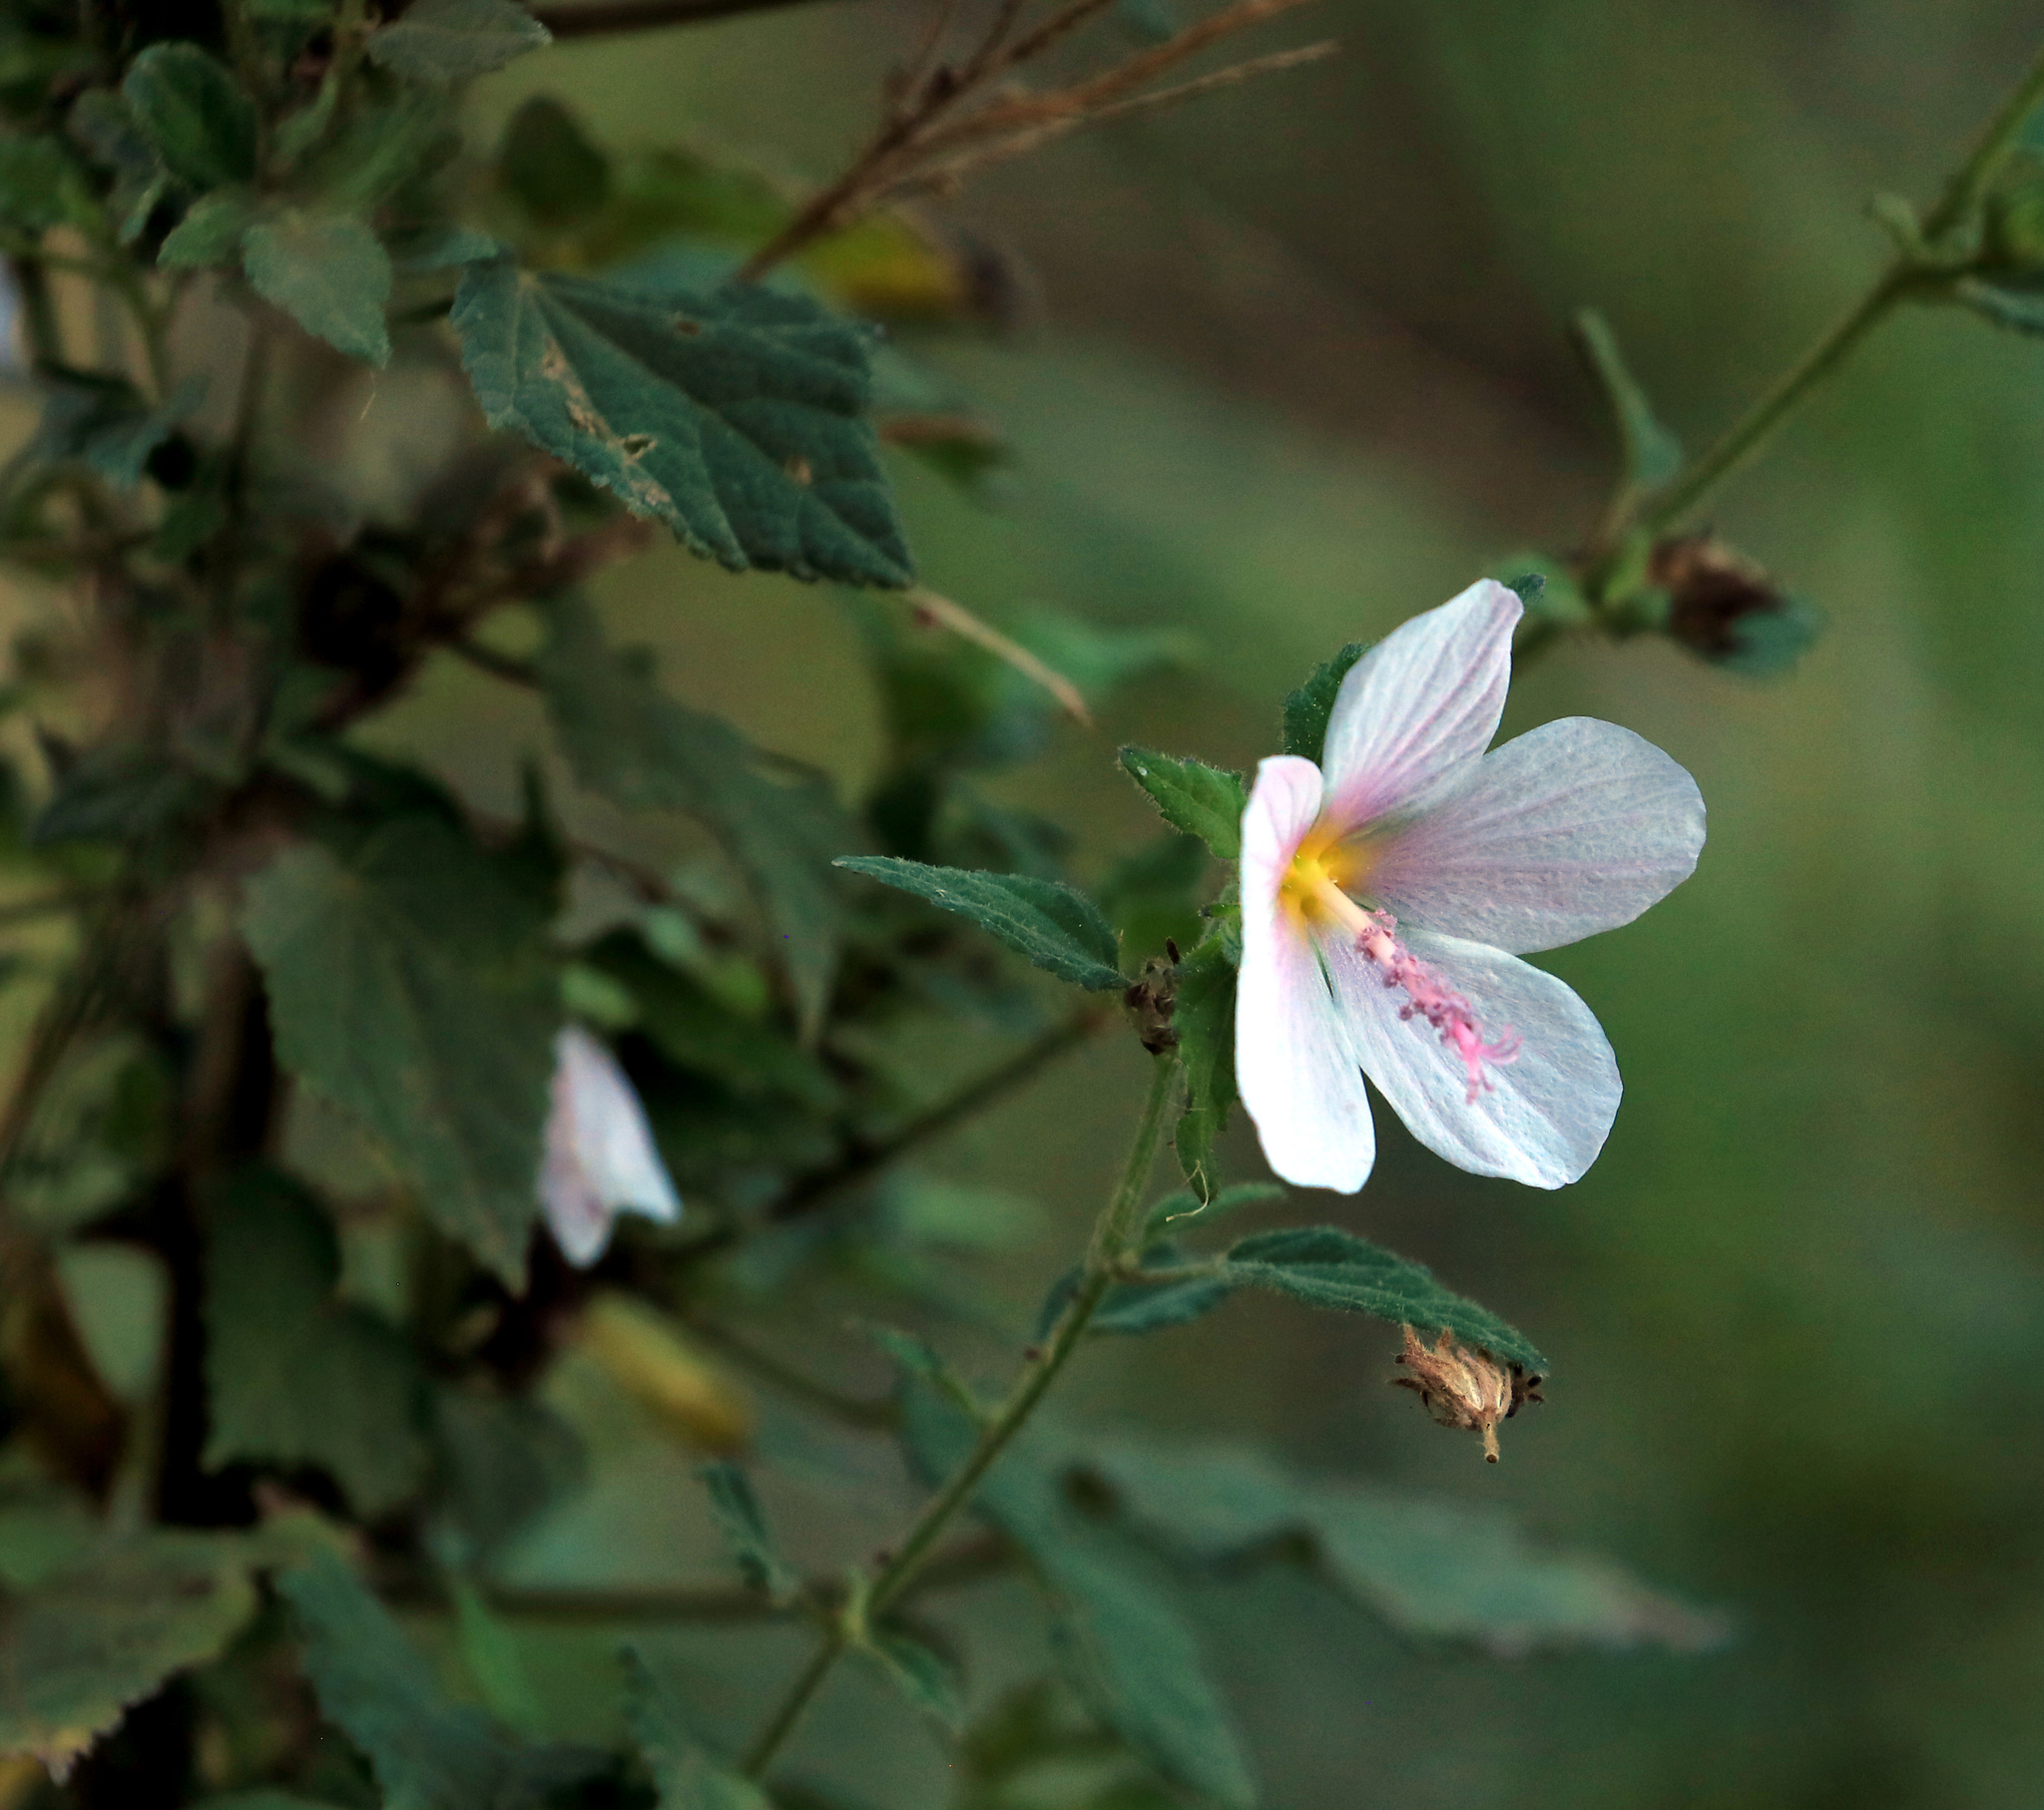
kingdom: Plantae
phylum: Tracheophyta
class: Magnoliopsida
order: Malvales
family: Malvaceae
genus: Pavonia
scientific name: Pavonia columella
